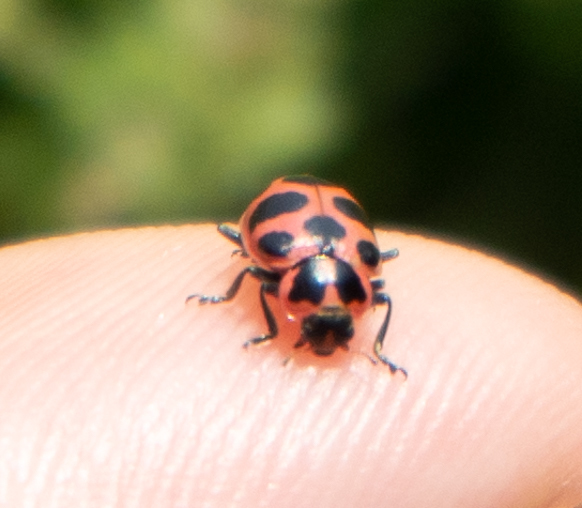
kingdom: Animalia
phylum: Arthropoda
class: Insecta
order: Coleoptera
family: Coccinellidae
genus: Coleomegilla
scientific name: Coleomegilla maculata
